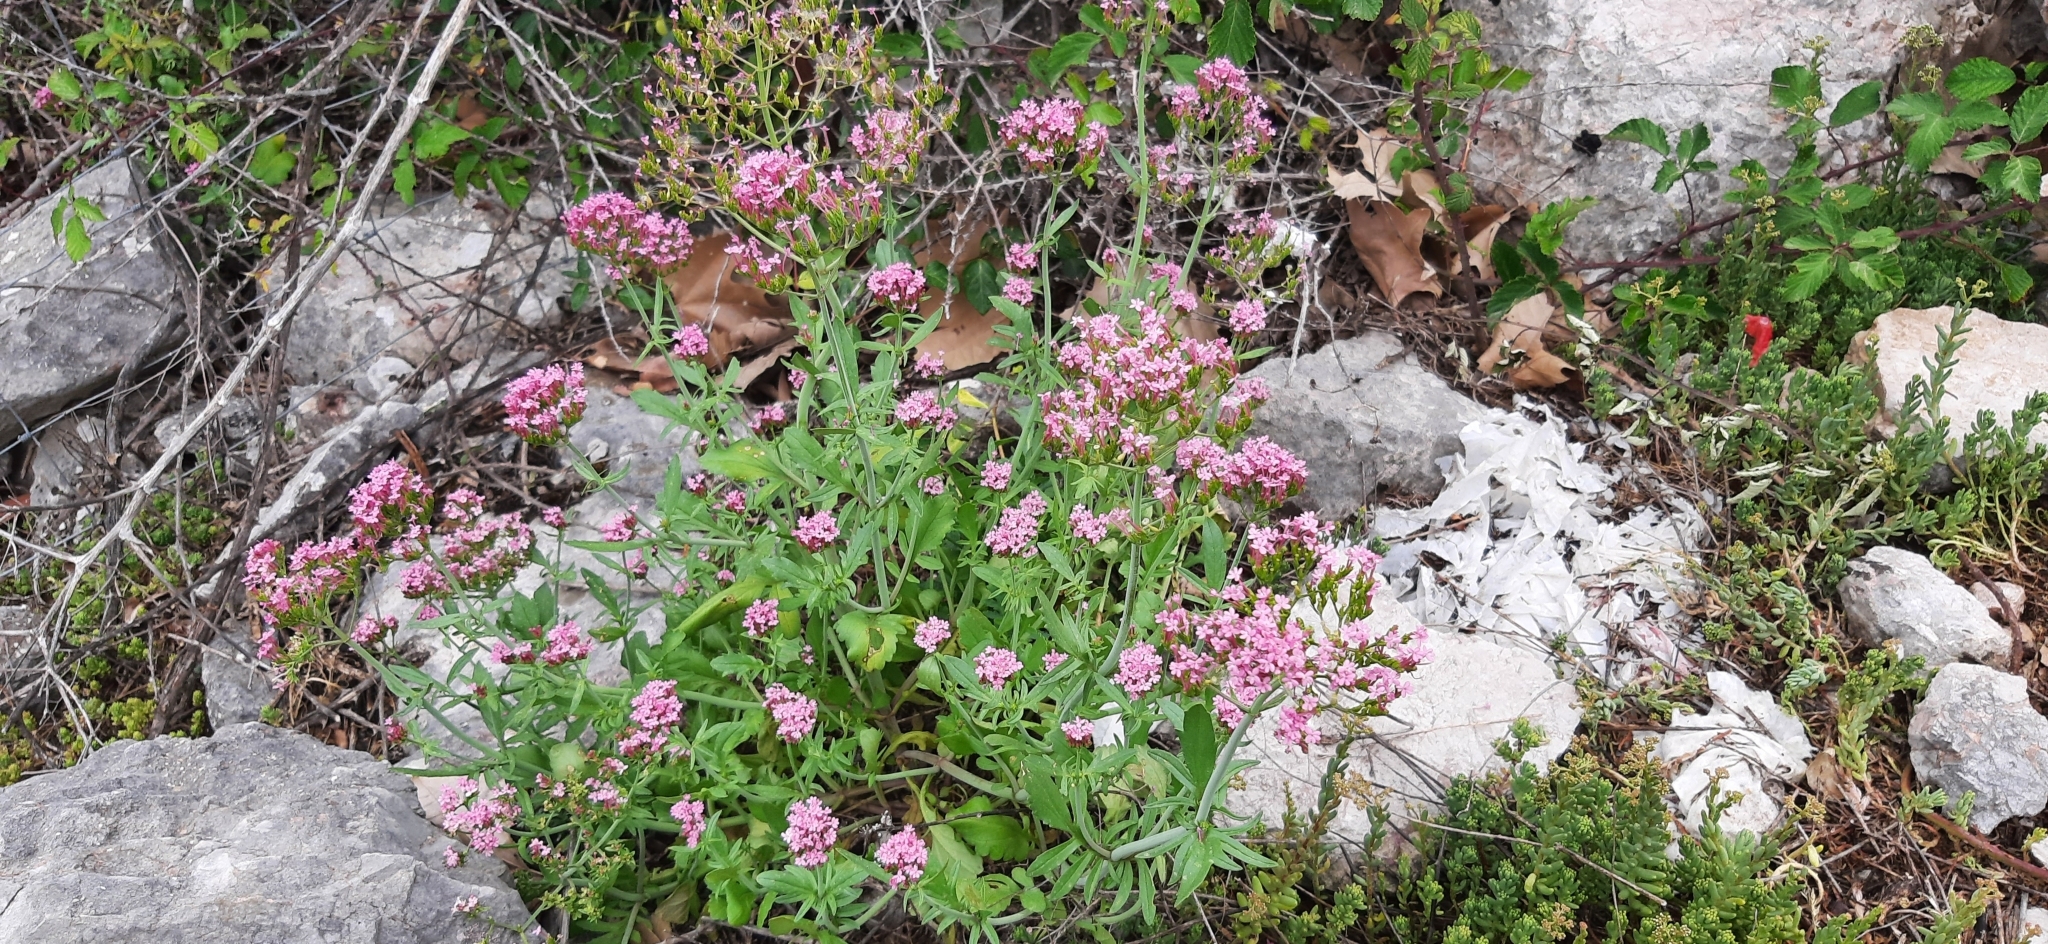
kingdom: Plantae
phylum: Tracheophyta
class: Magnoliopsida
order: Dipsacales
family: Caprifoliaceae
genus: Centranthus
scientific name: Centranthus macrosiphon
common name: Spanish-valerian
